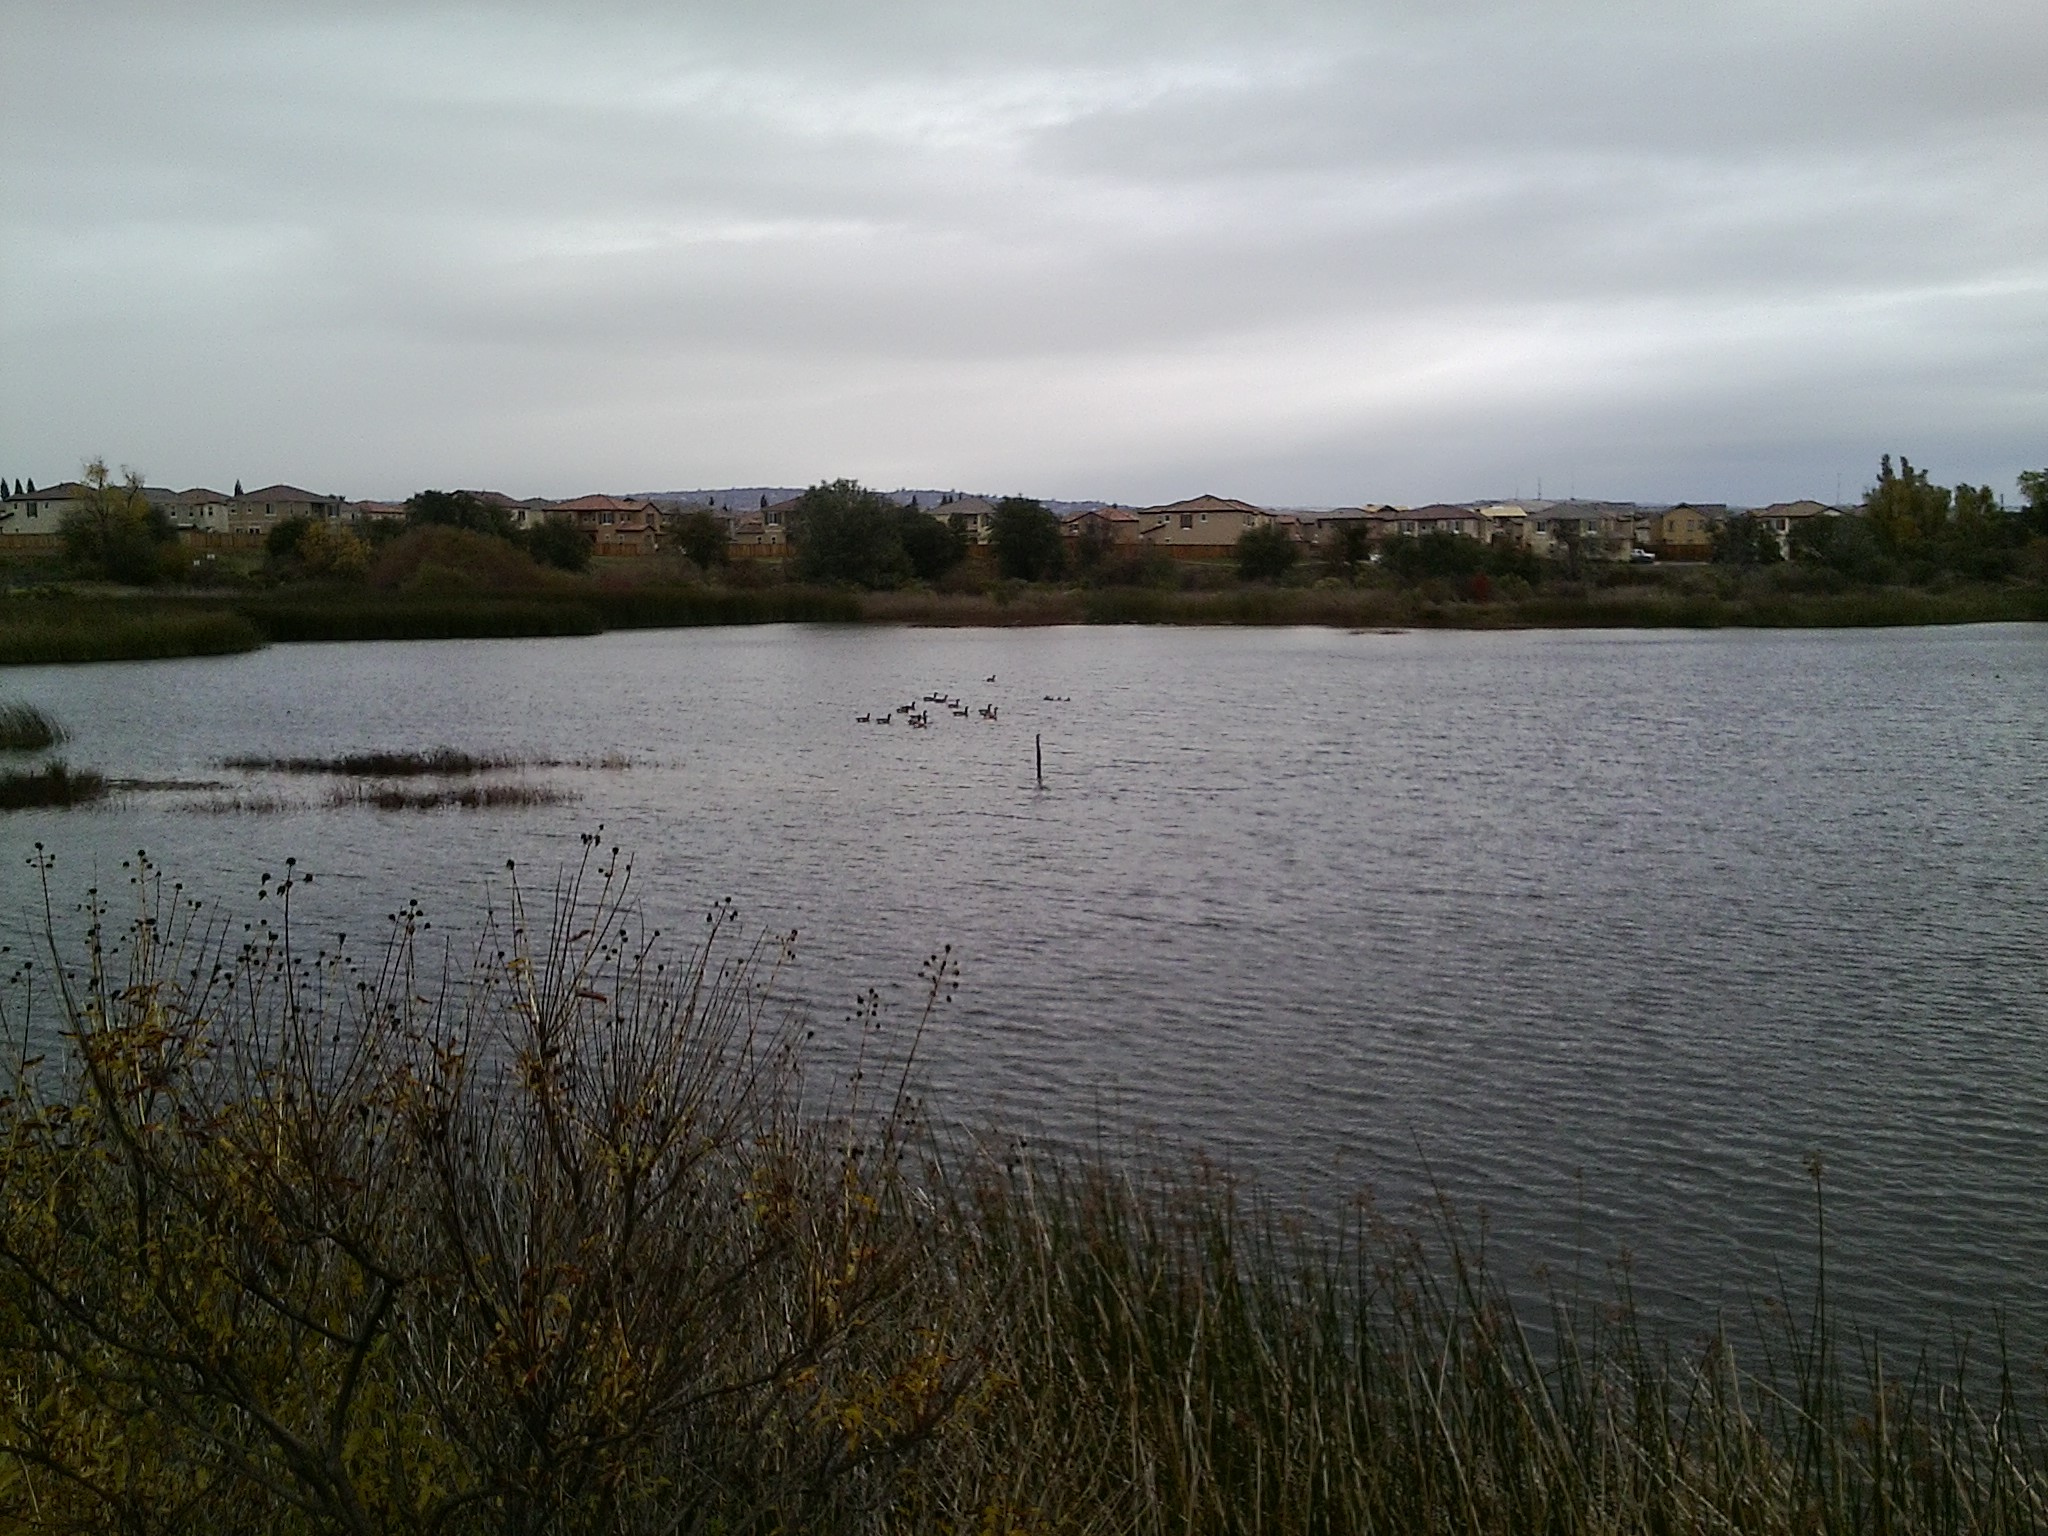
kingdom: Animalia
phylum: Chordata
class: Aves
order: Anseriformes
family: Anatidae
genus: Branta
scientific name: Branta canadensis
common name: Canada goose
